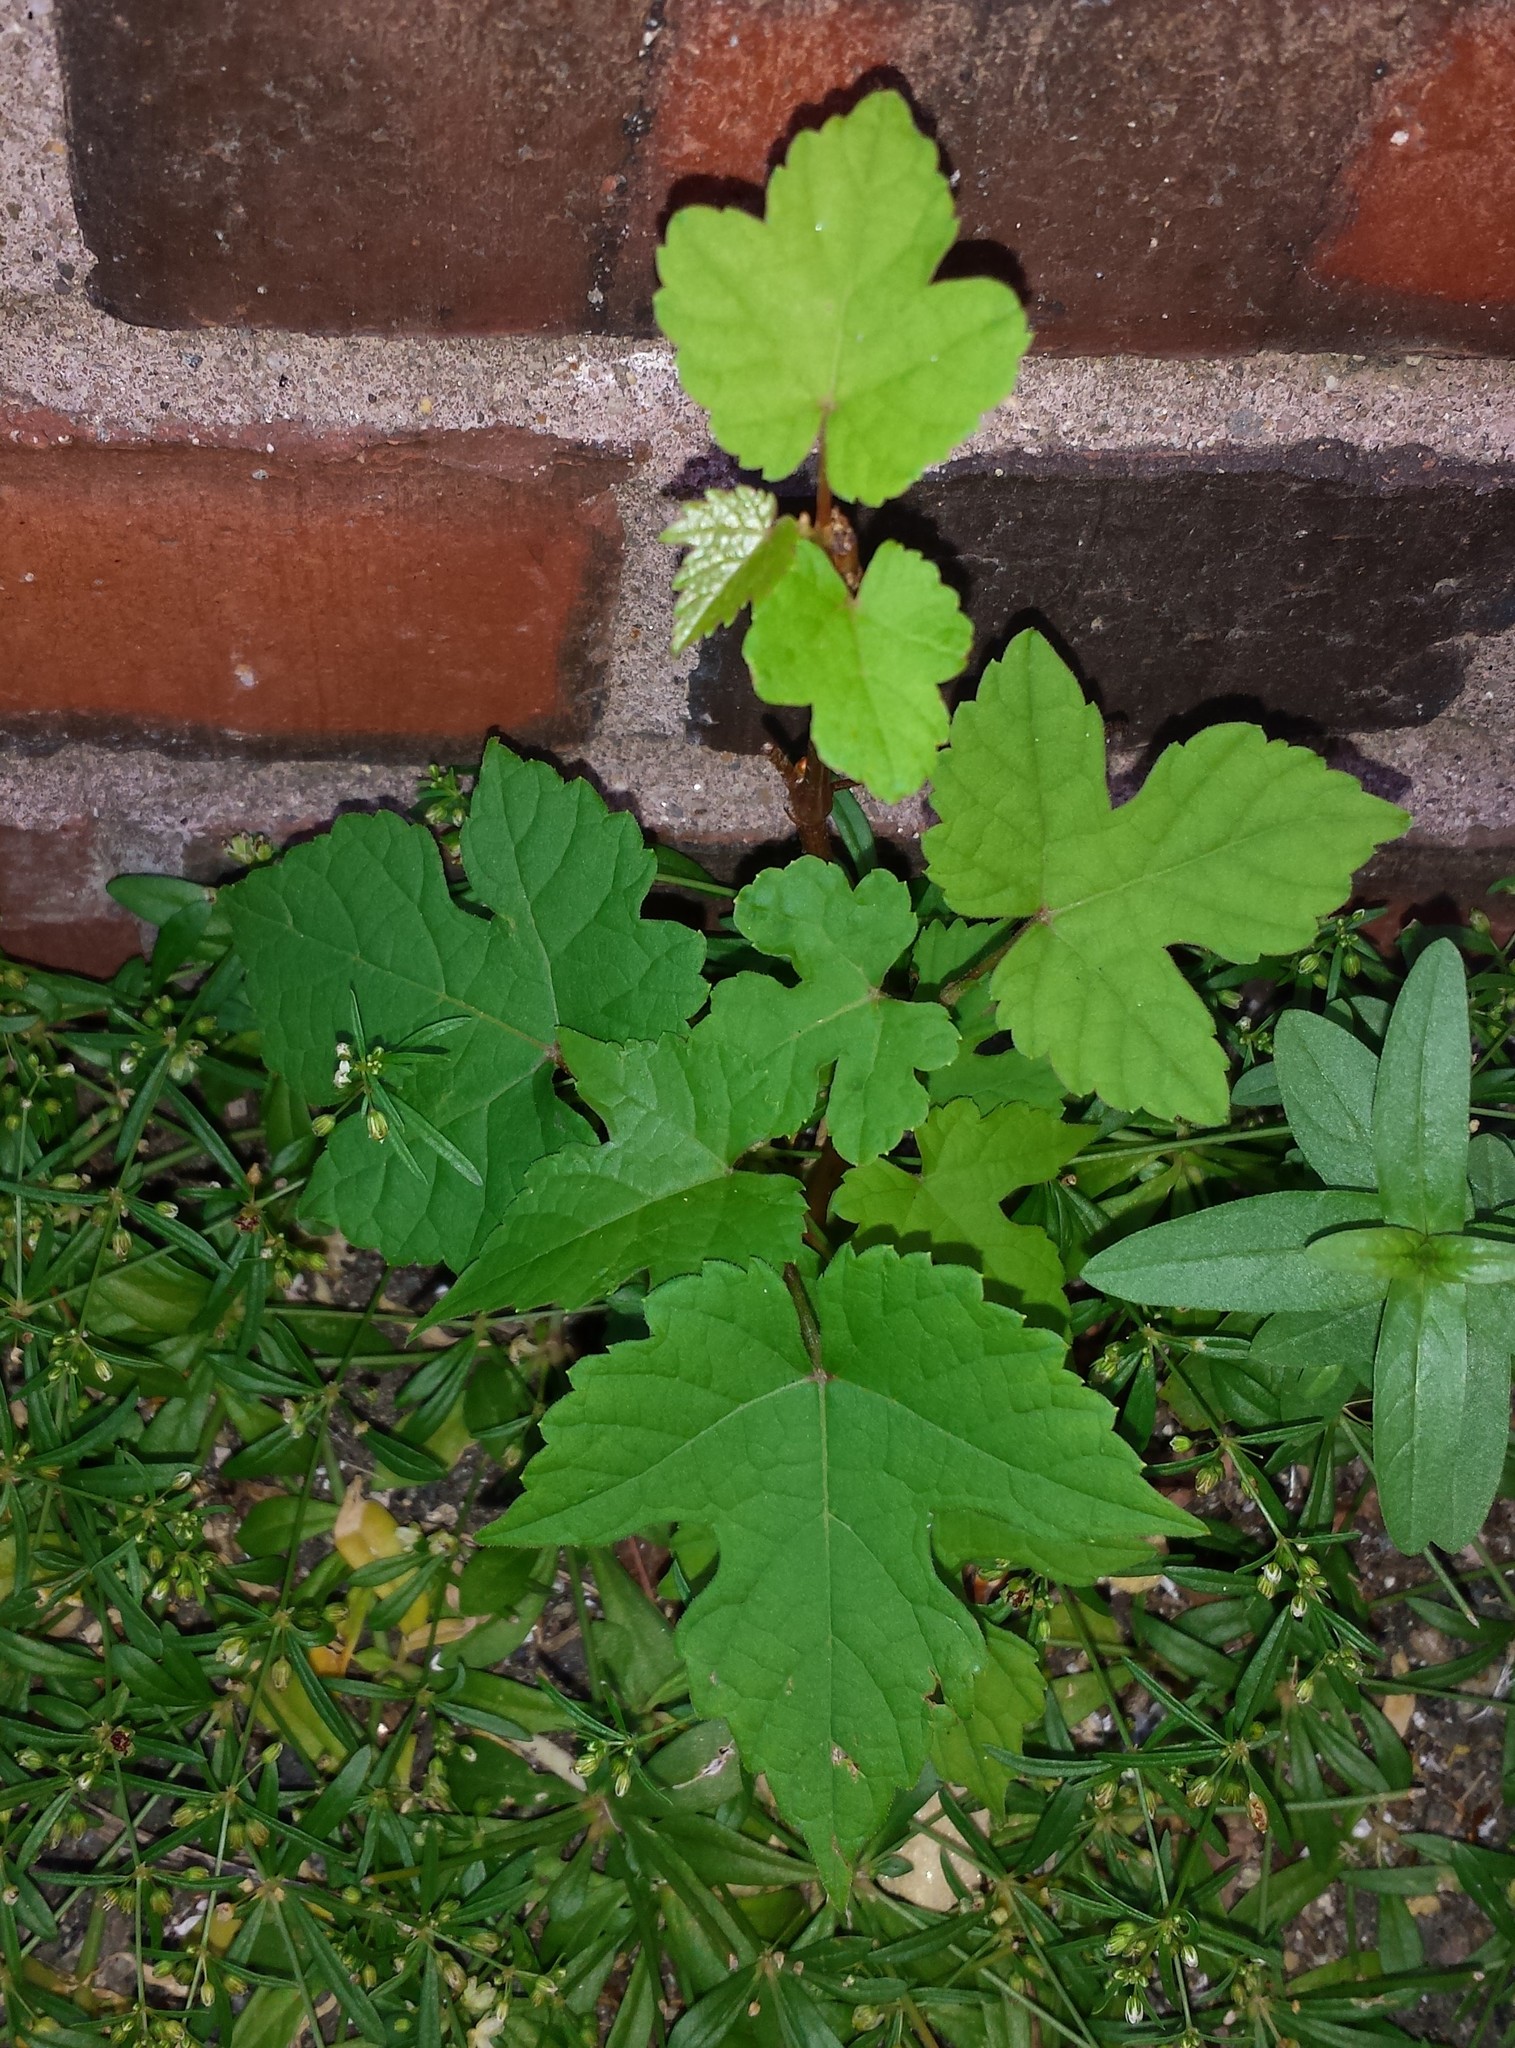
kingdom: Plantae
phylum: Tracheophyta
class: Magnoliopsida
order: Vitales
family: Vitaceae
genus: Vitis
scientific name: Vitis aestivalis
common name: Pigeon grape
